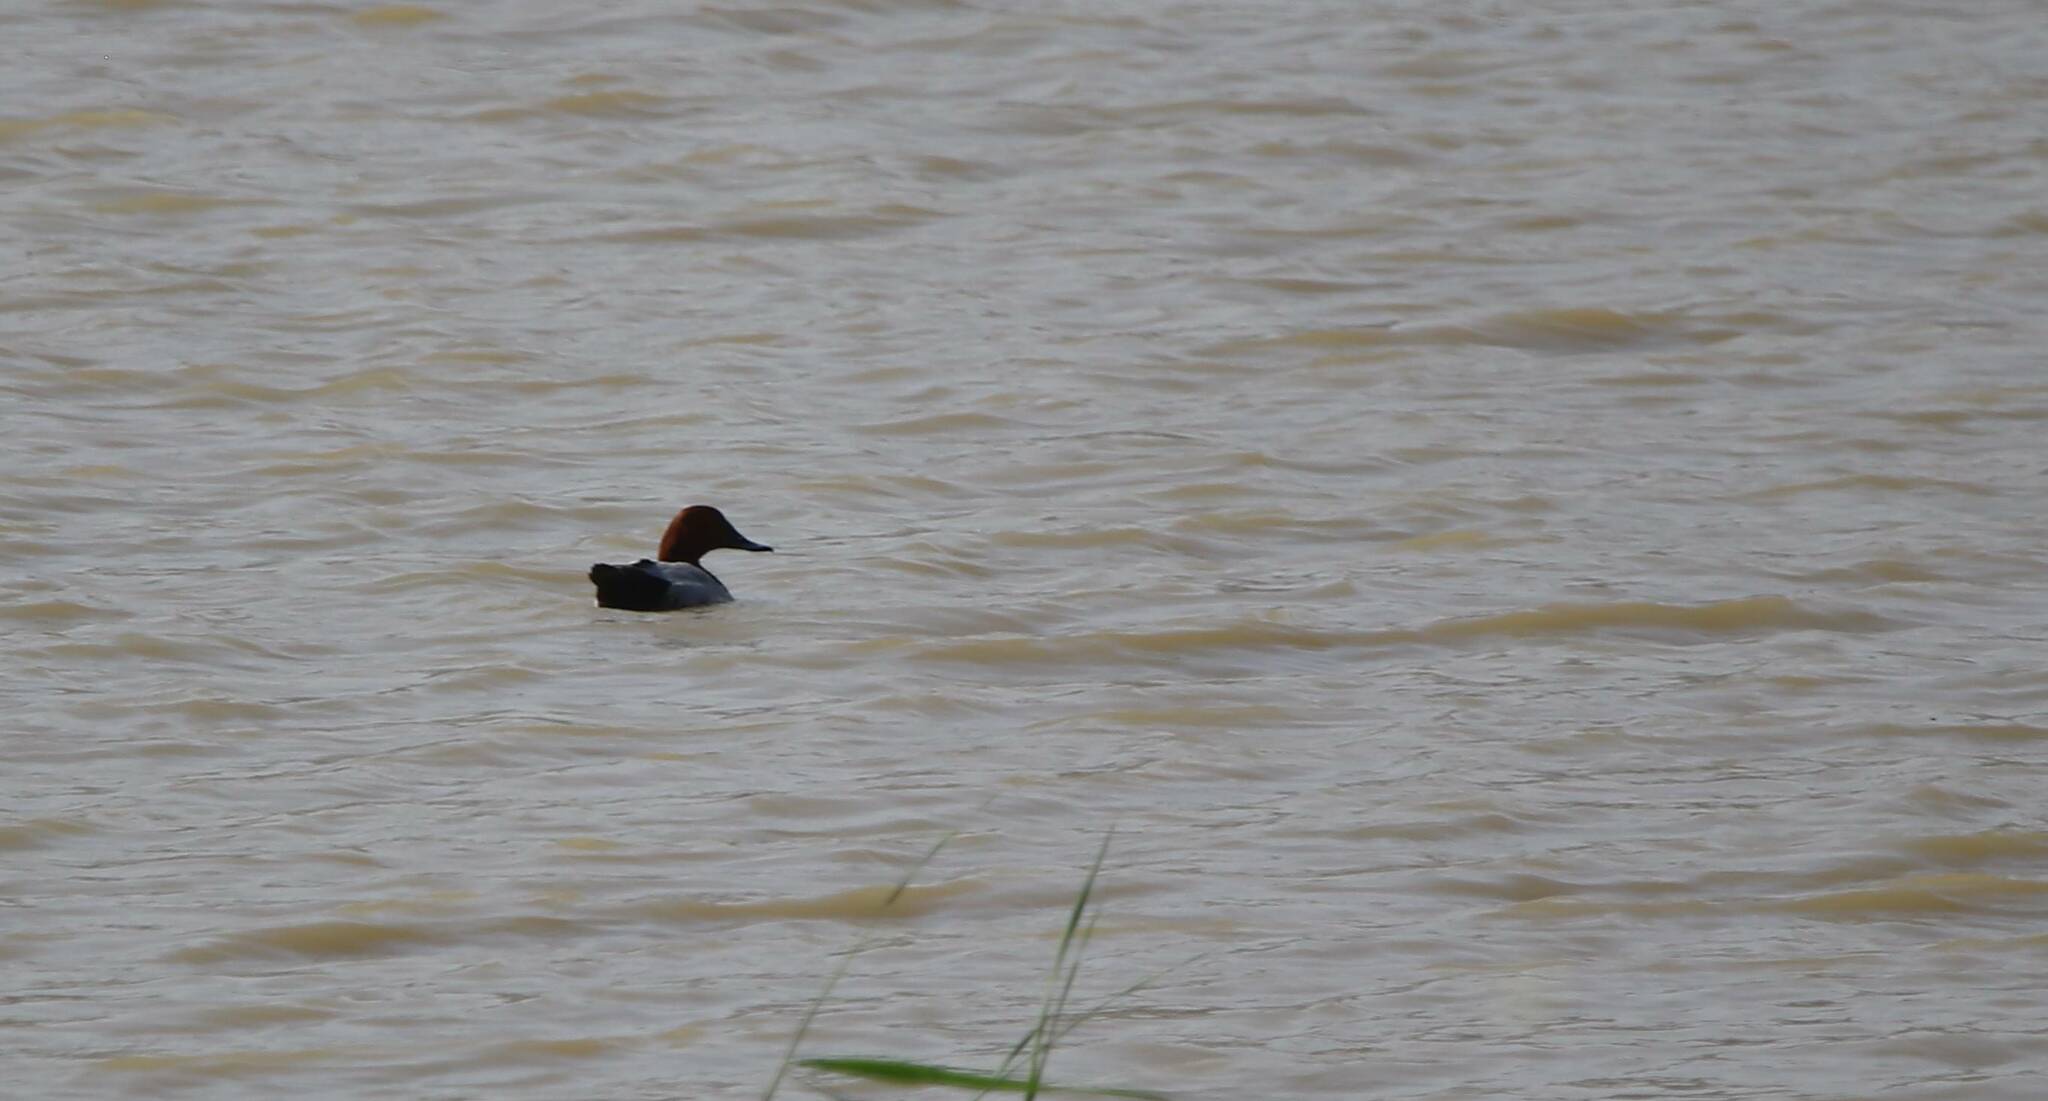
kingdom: Animalia
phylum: Chordata
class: Aves
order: Anseriformes
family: Anatidae
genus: Aythya
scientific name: Aythya ferina
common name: Common pochard
